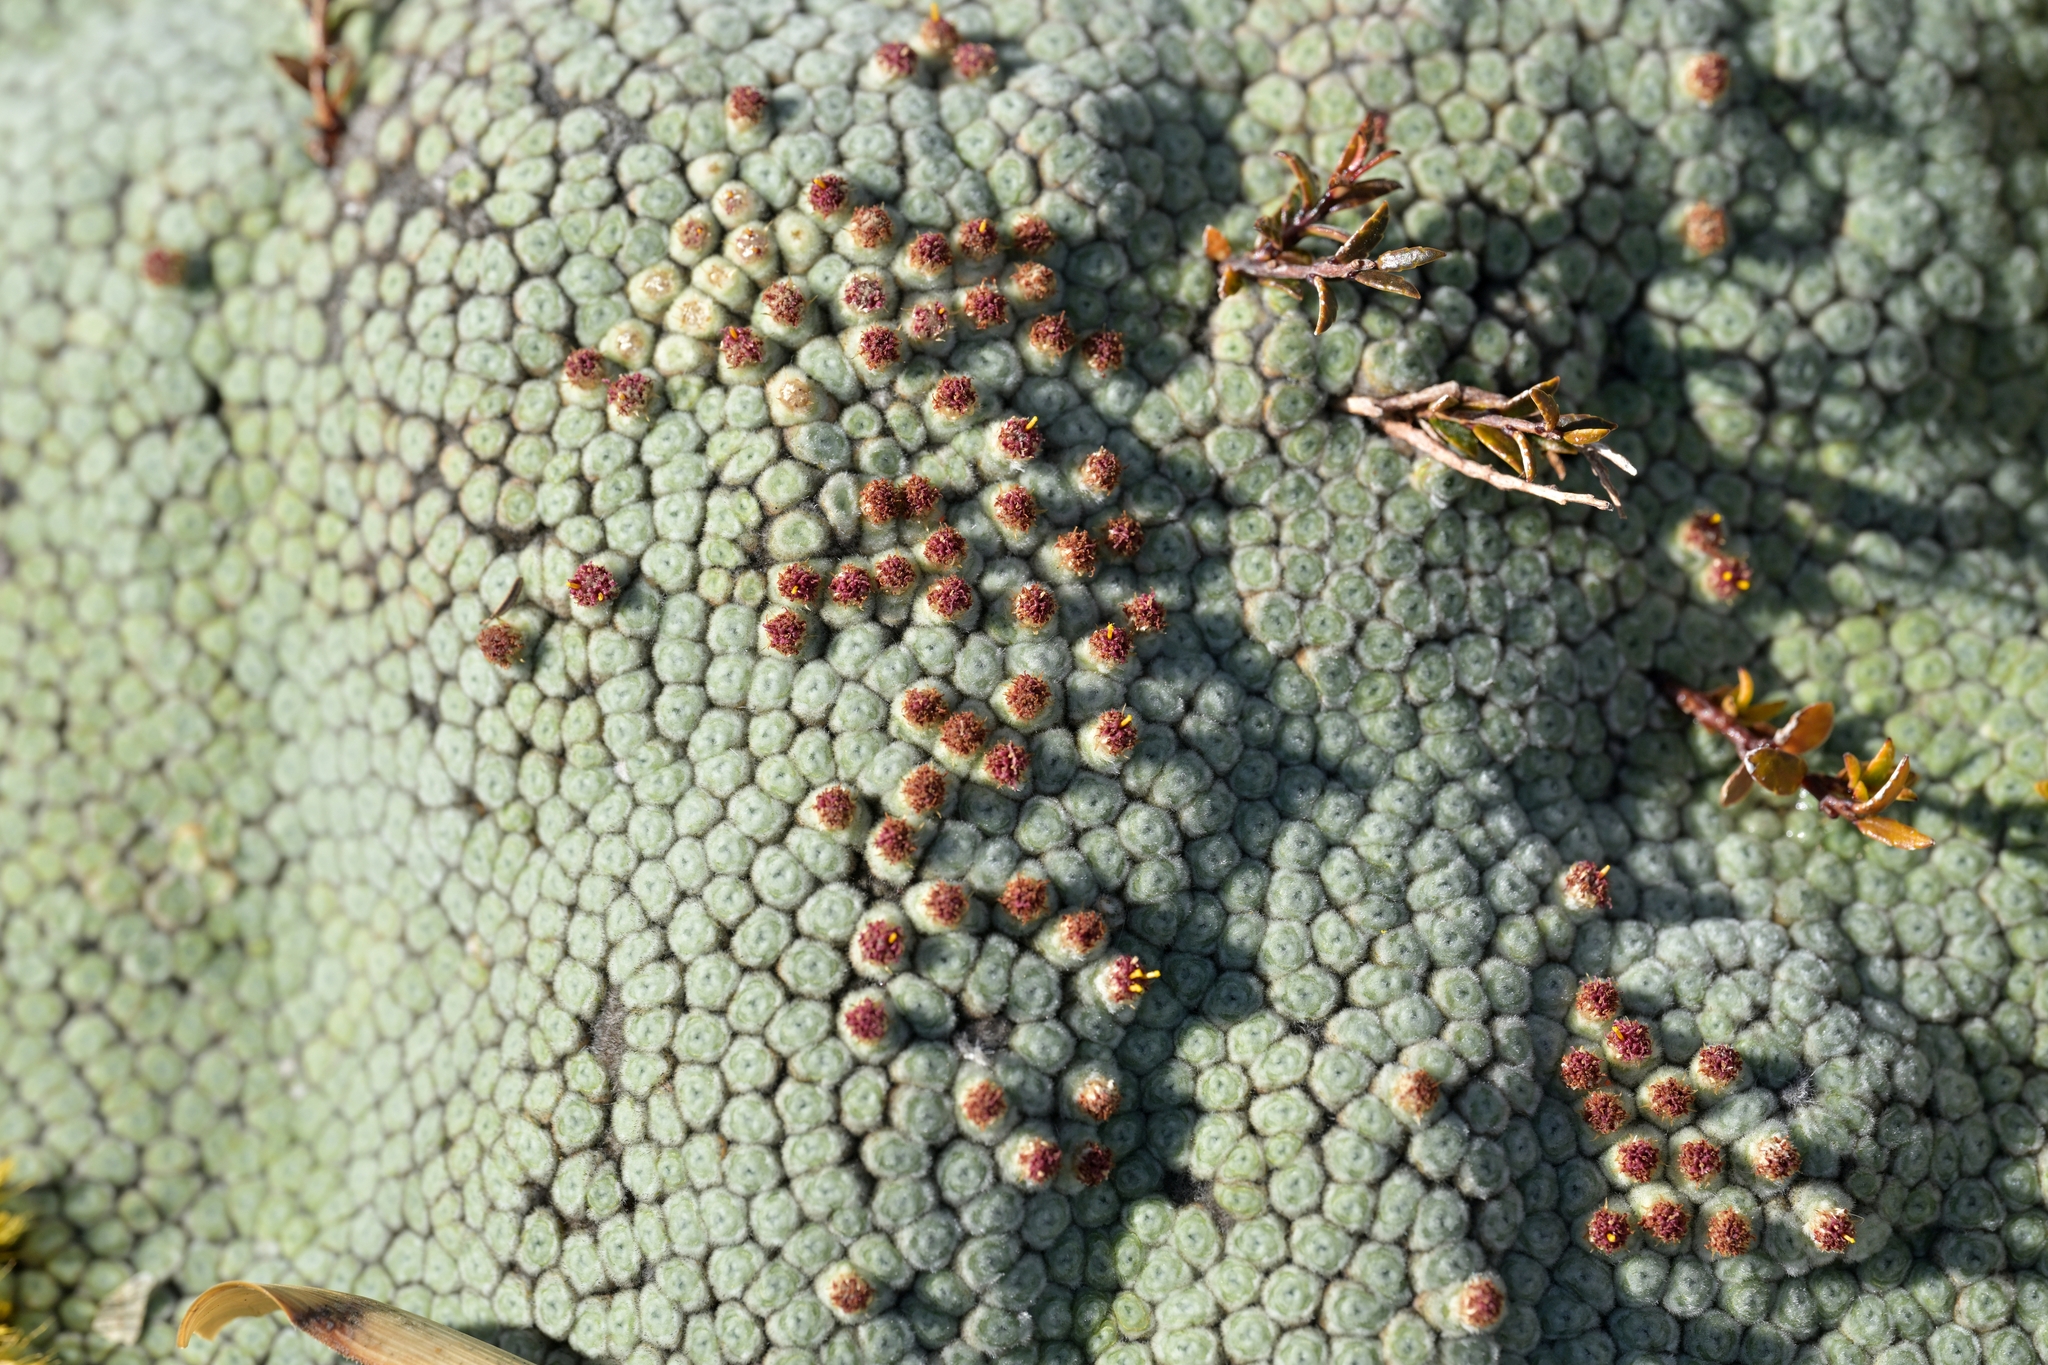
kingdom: Plantae
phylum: Tracheophyta
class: Magnoliopsida
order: Asterales
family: Asteraceae
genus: Raoulia
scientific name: Raoulia eximia
